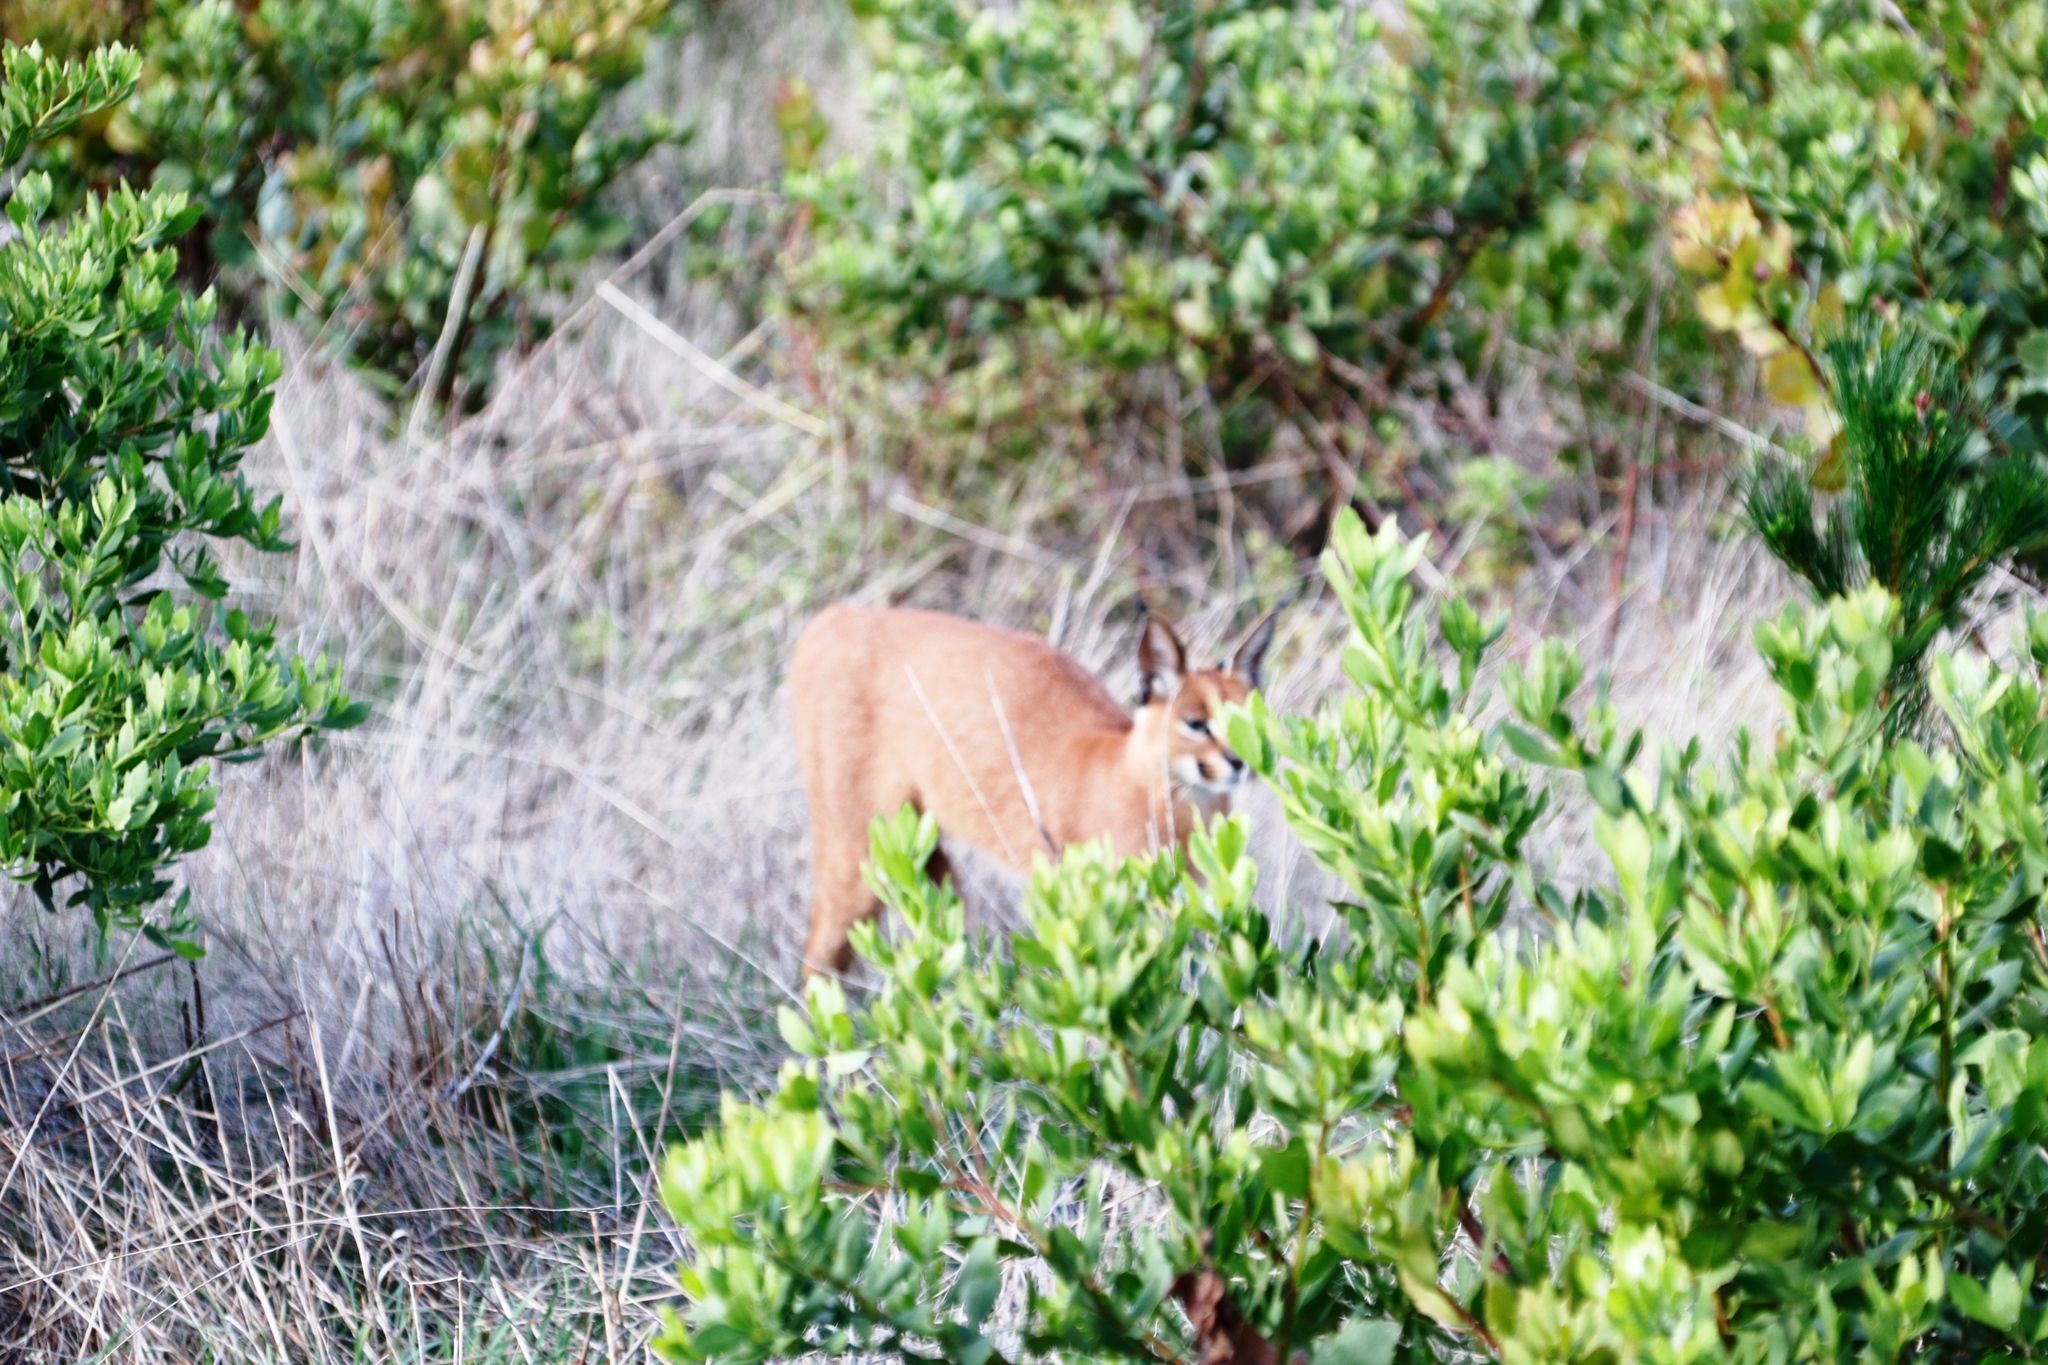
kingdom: Animalia
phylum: Chordata
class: Mammalia
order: Carnivora
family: Felidae
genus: Caracal
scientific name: Caracal caracal
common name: Caracal
